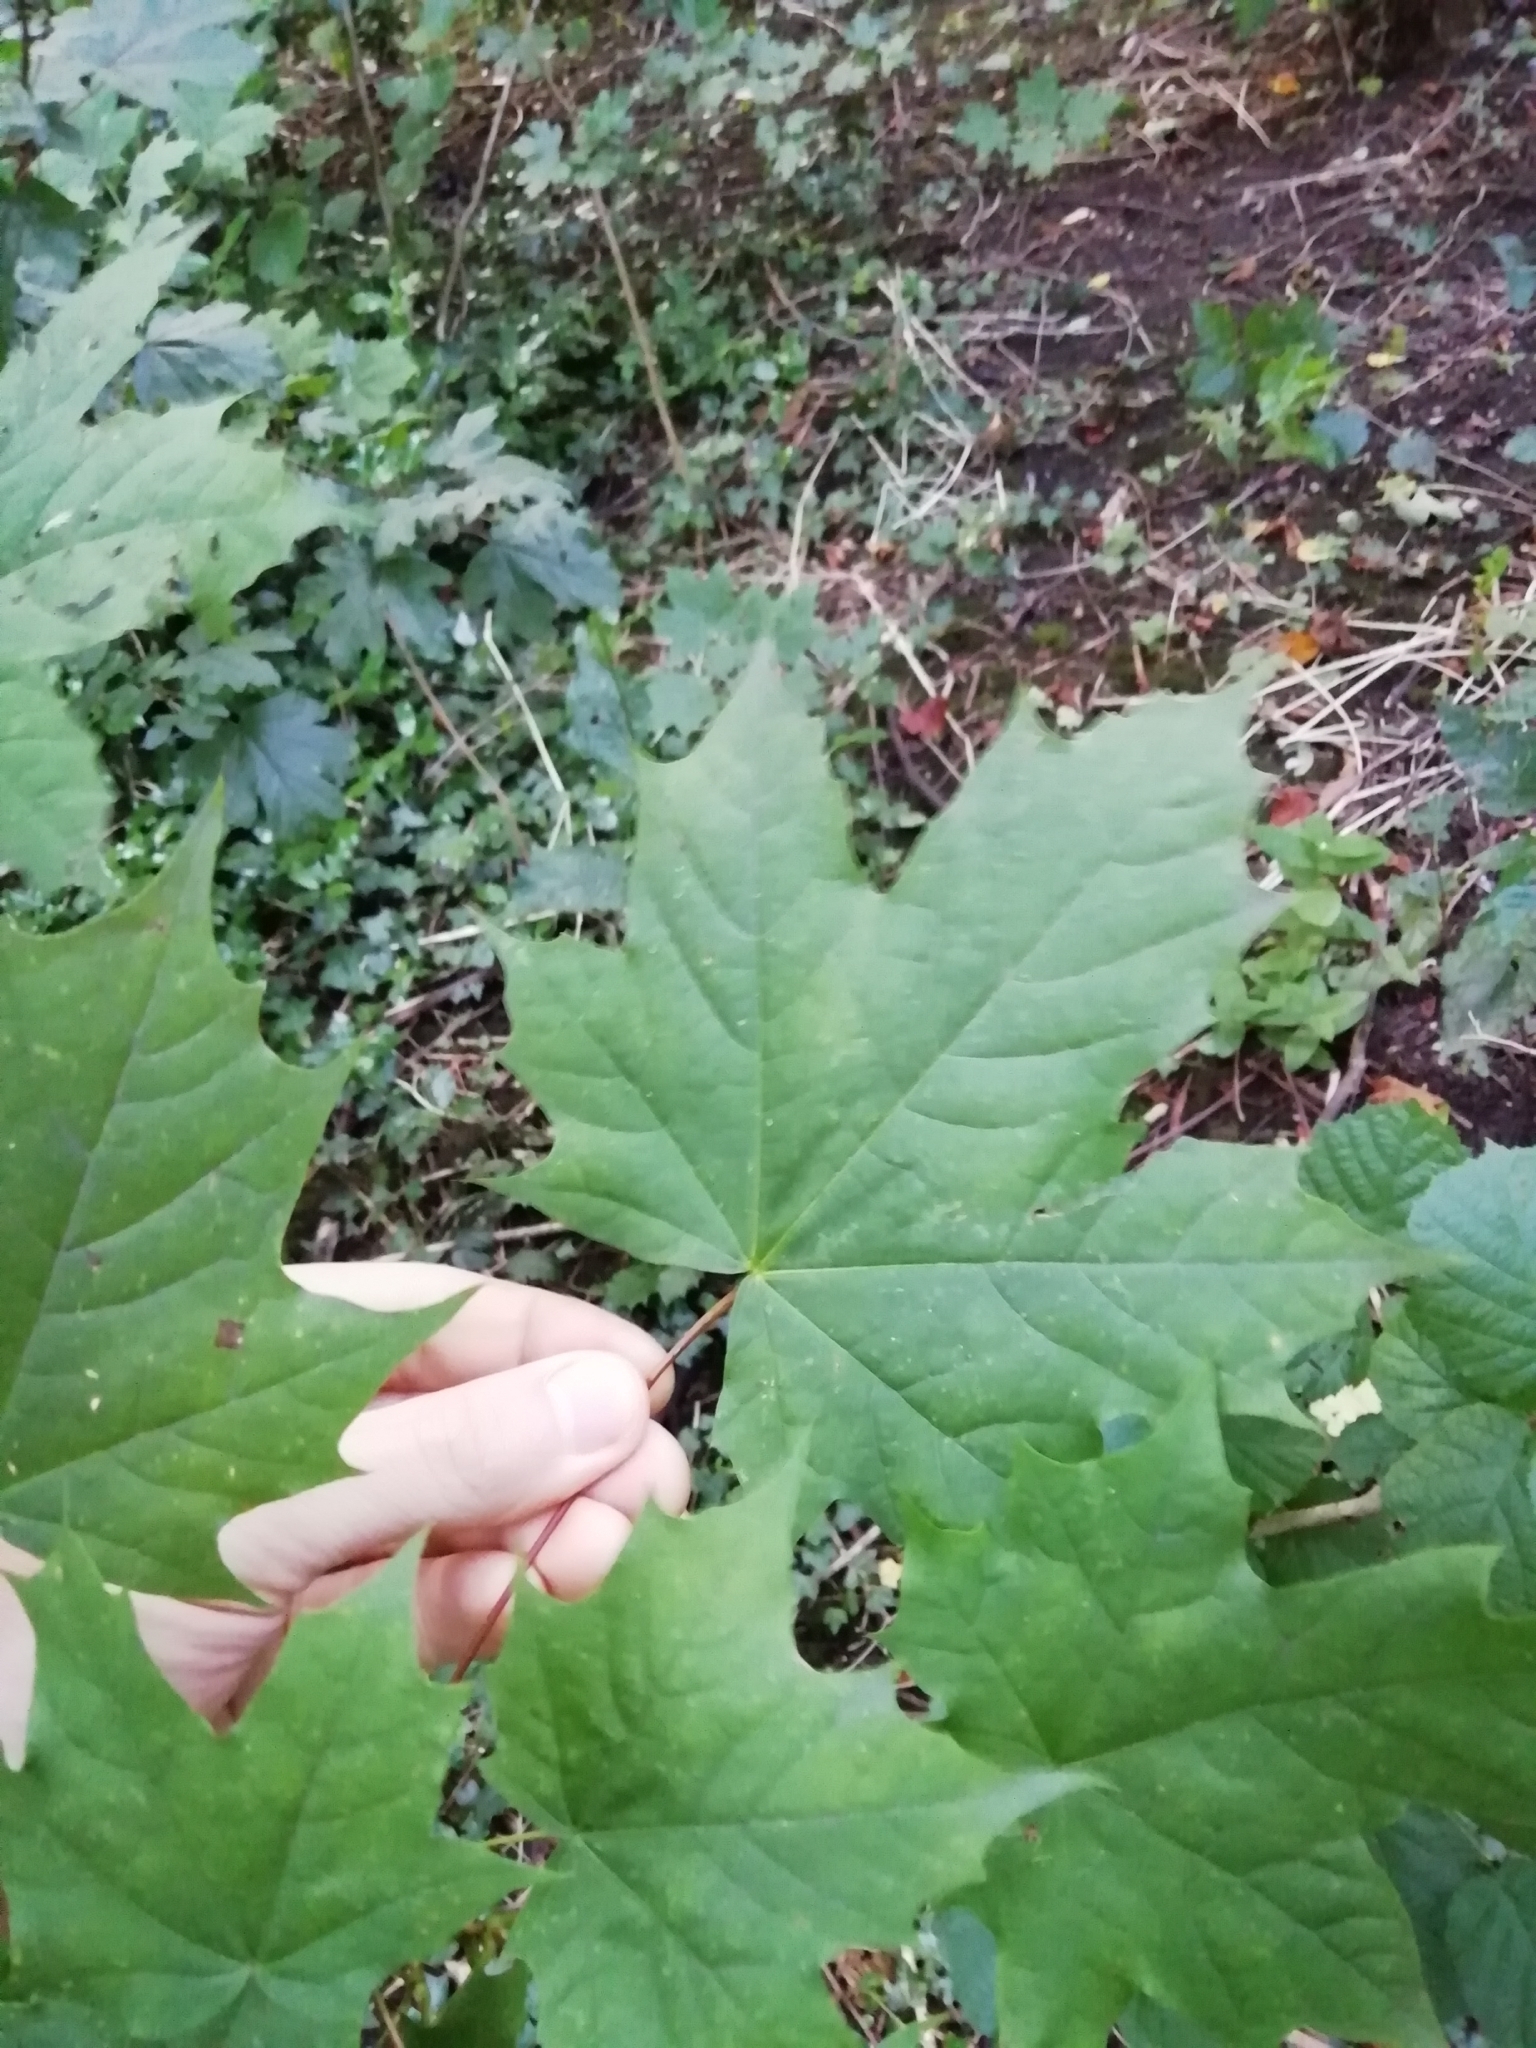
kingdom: Plantae
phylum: Tracheophyta
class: Magnoliopsida
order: Sapindales
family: Sapindaceae
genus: Acer
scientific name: Acer platanoides
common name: Norway maple
